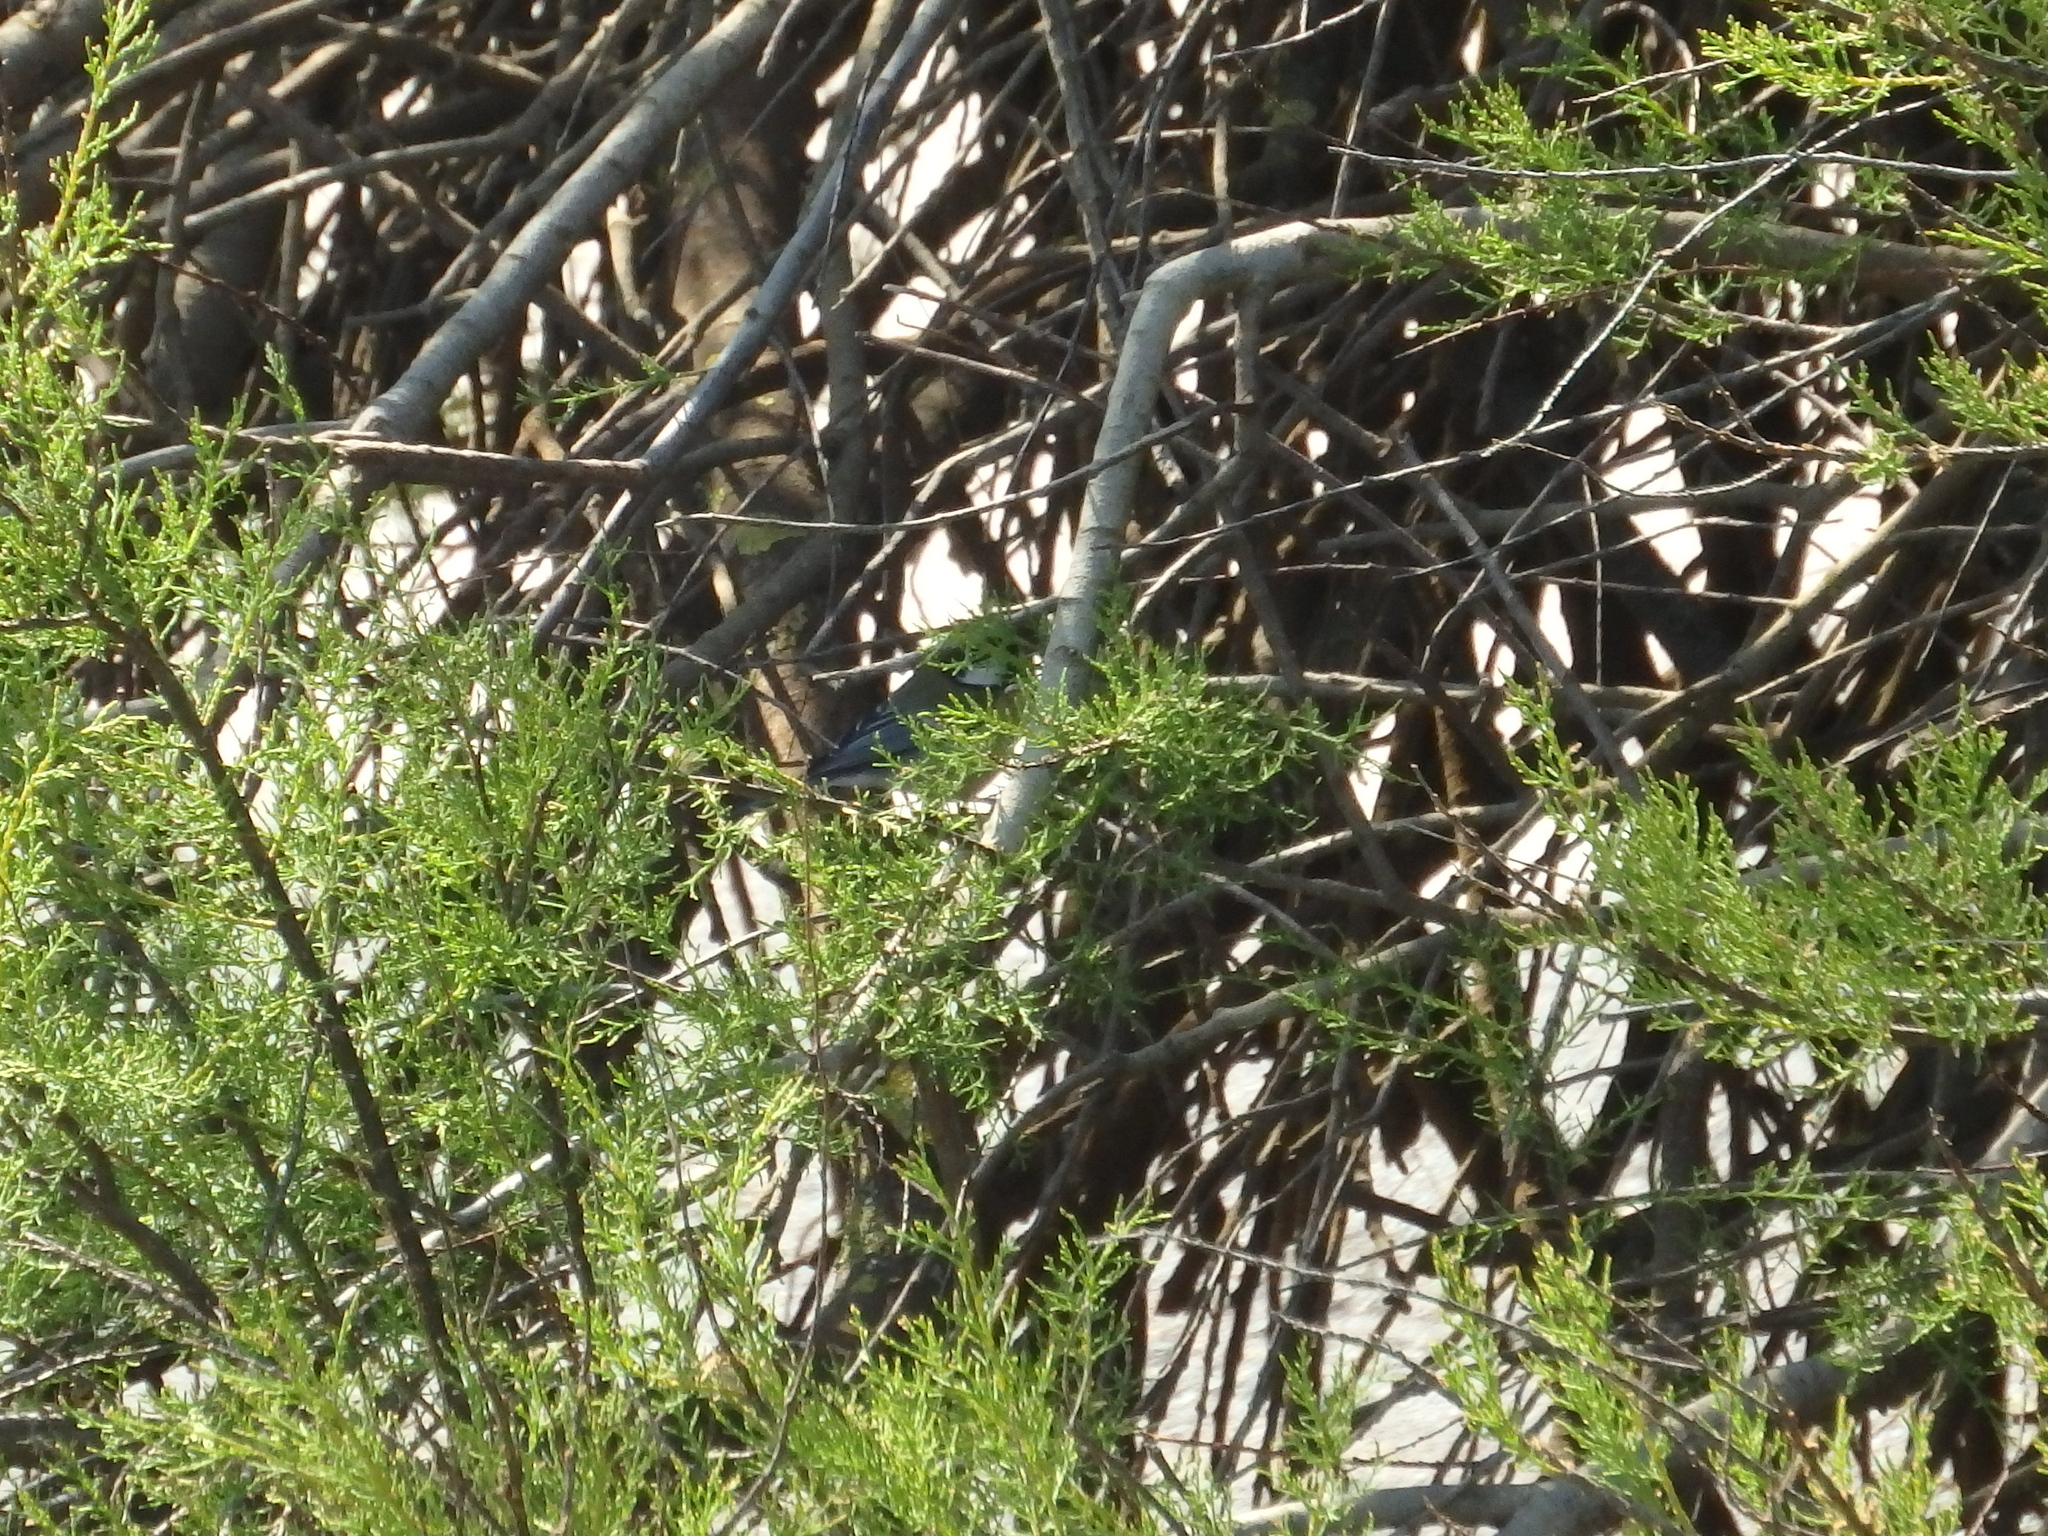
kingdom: Animalia
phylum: Chordata
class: Aves
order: Passeriformes
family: Paridae
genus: Parus
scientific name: Parus major
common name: Great tit
